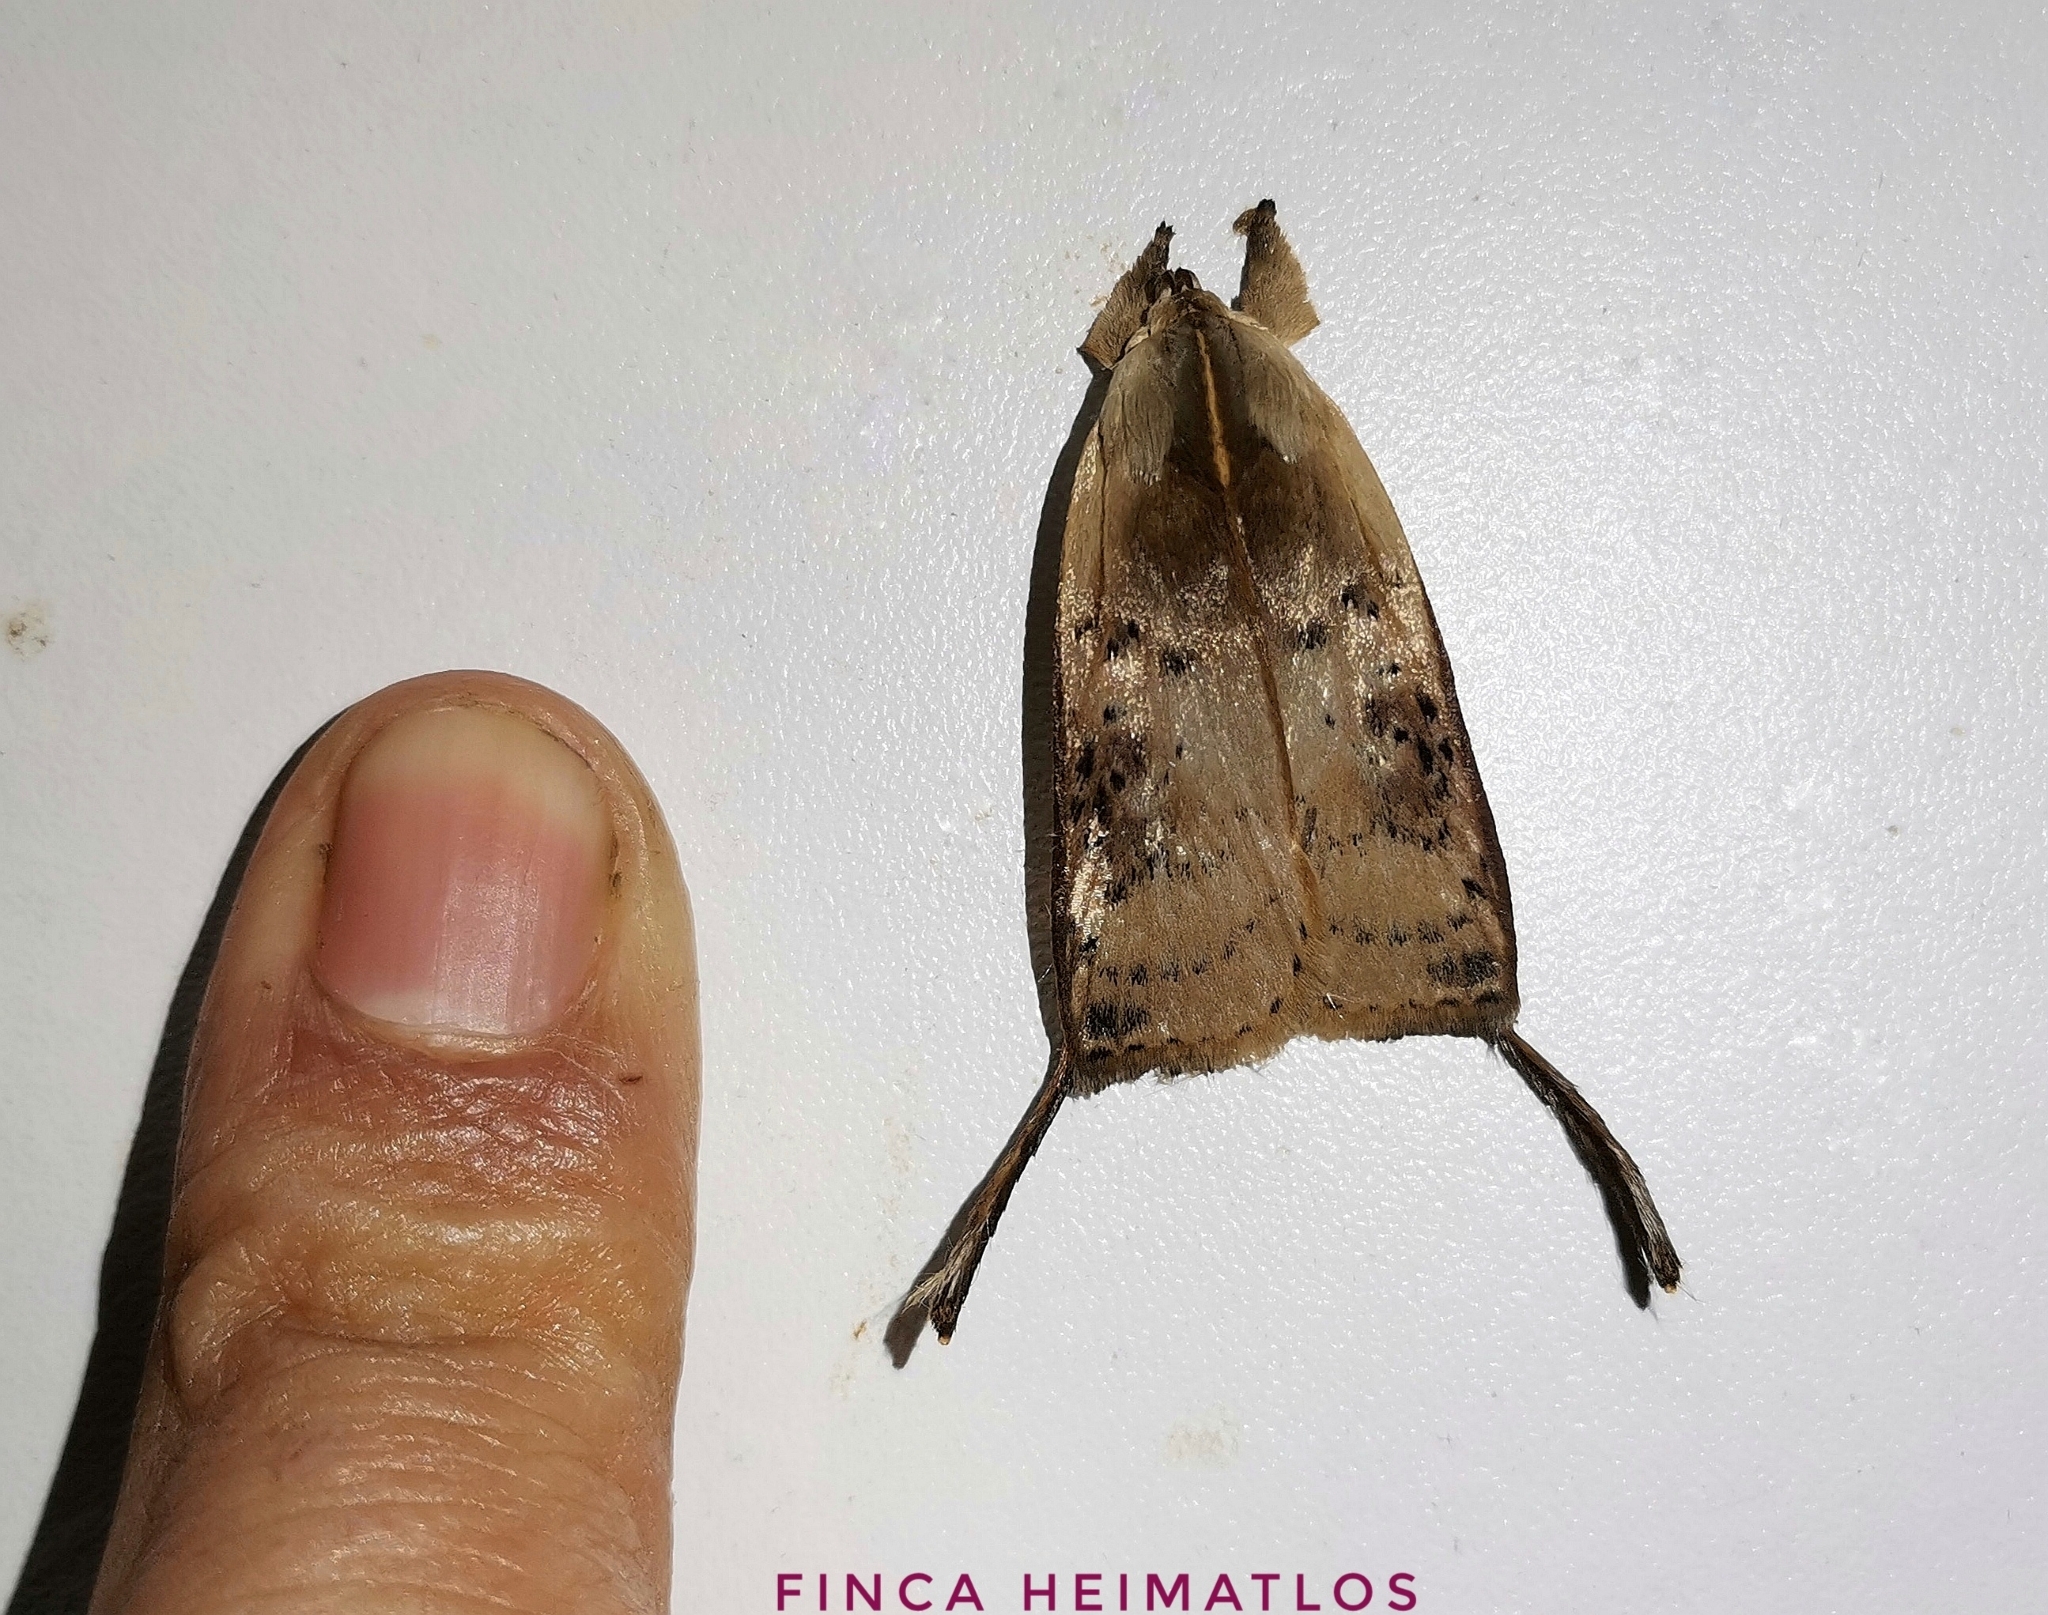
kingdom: Animalia
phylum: Arthropoda
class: Insecta
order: Lepidoptera
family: Depressariidae
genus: Thioscelis
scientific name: Thioscelis directrix
